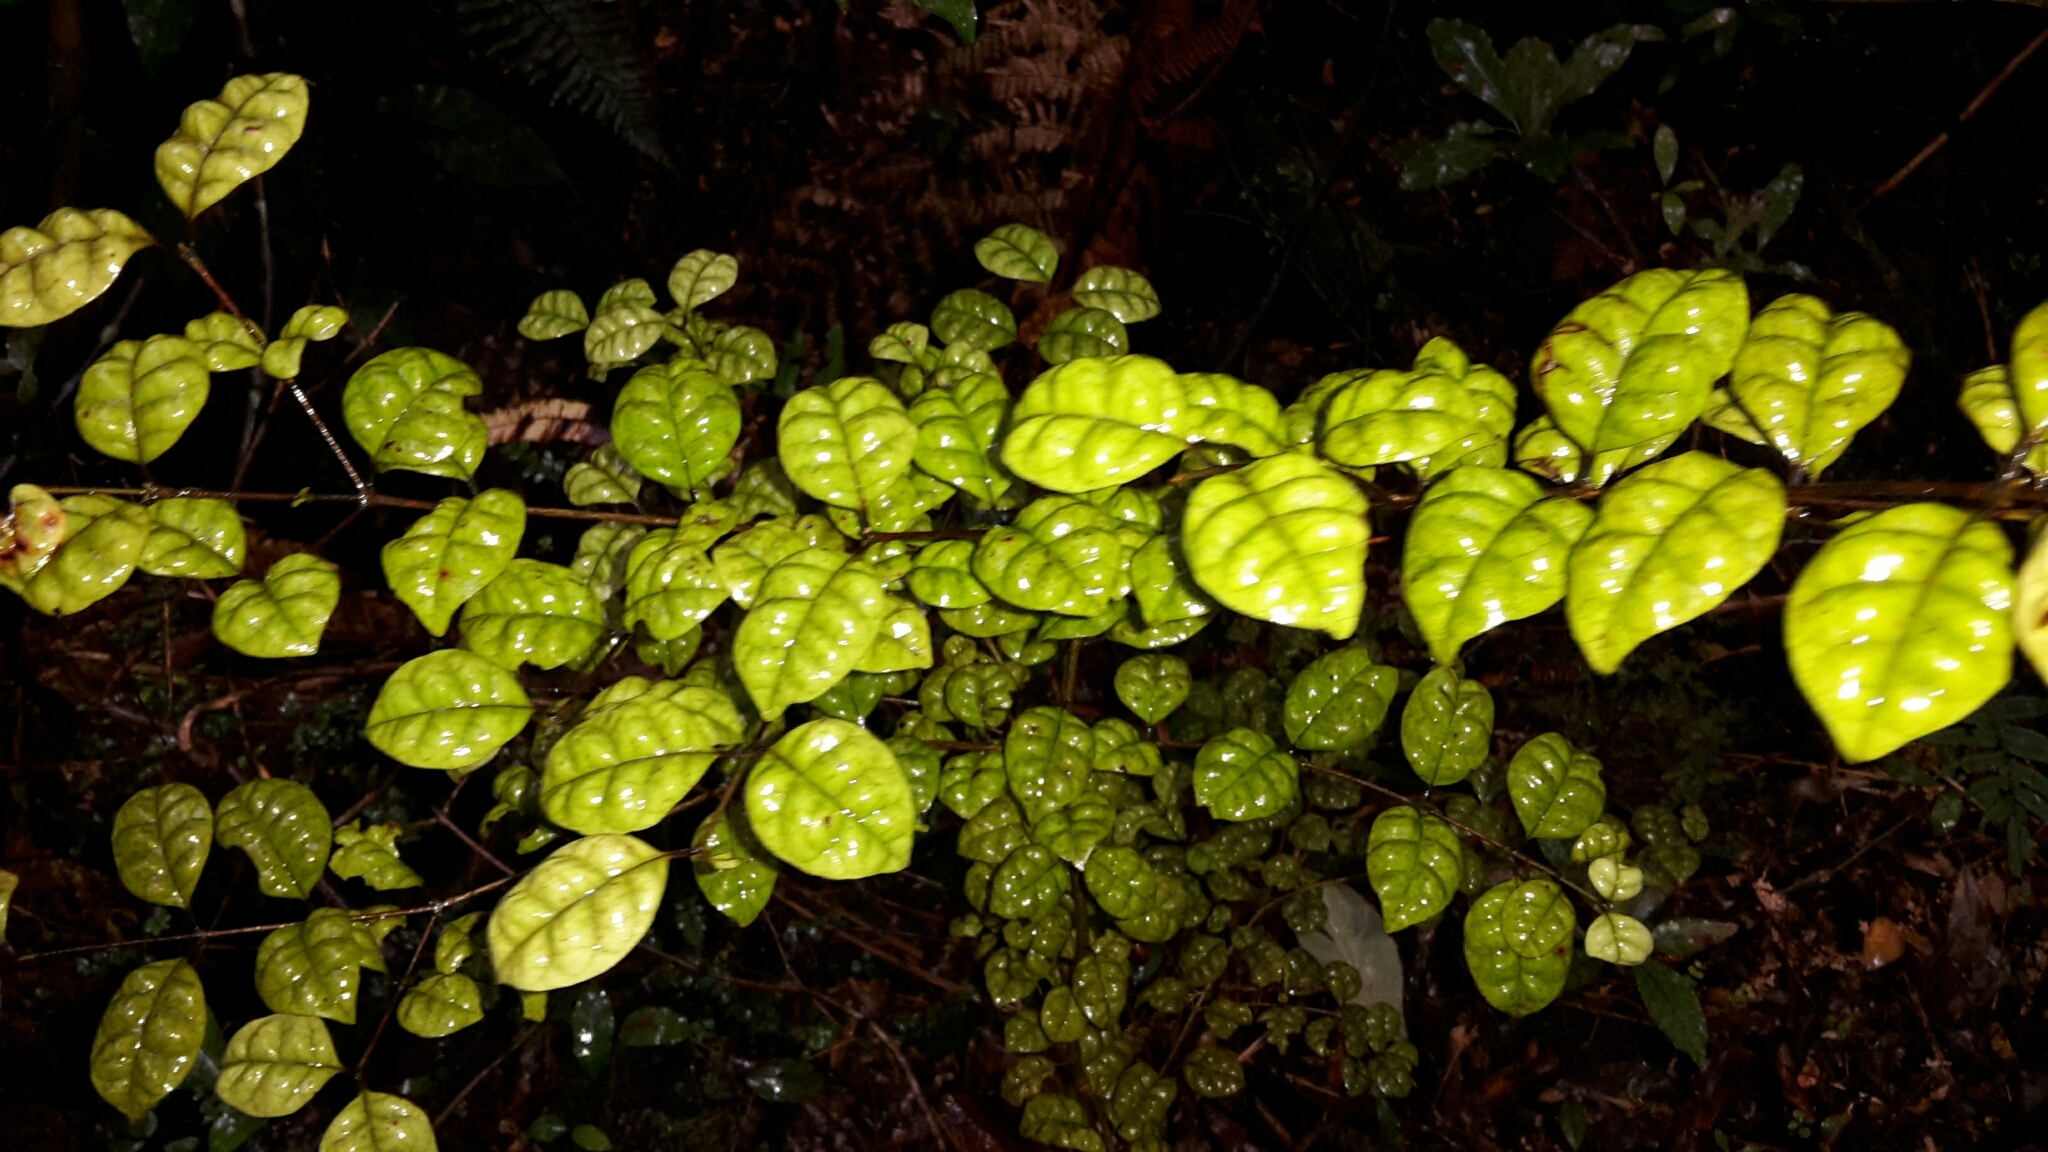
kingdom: Plantae
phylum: Tracheophyta
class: Magnoliopsida
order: Myrtales
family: Myrtaceae
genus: Lophomyrtus
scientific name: Lophomyrtus bullata
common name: Rama rama
